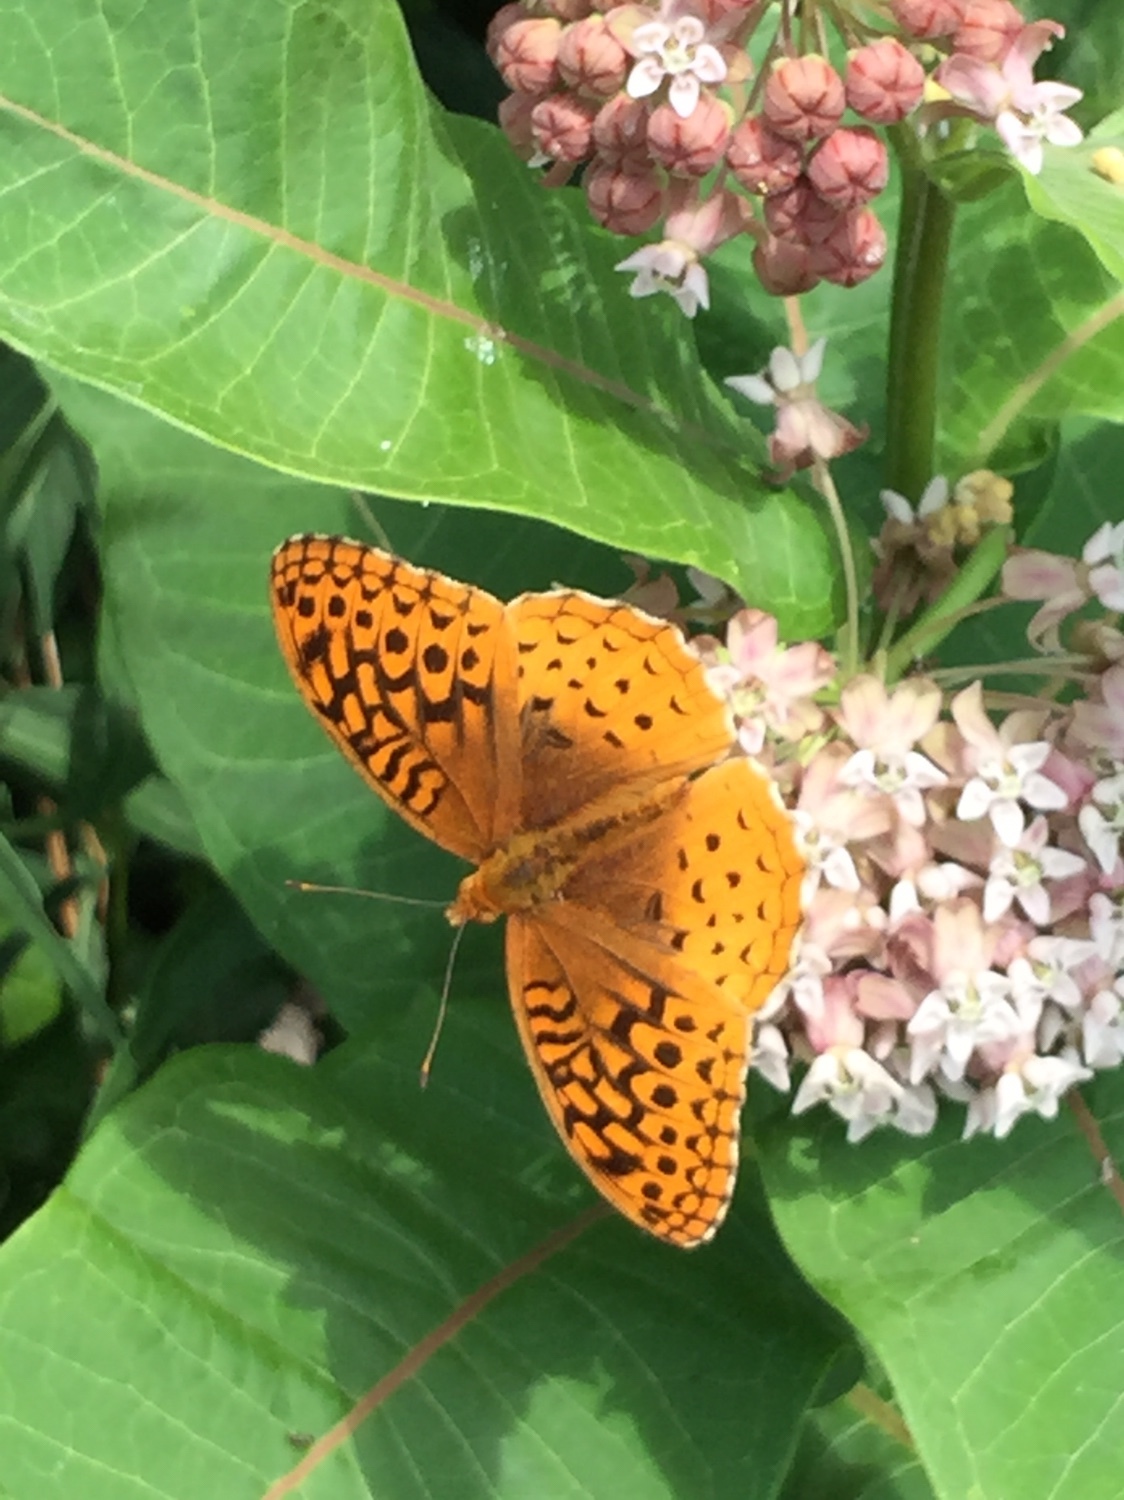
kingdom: Animalia
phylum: Arthropoda
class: Insecta
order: Lepidoptera
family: Nymphalidae
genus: Speyeria
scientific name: Speyeria cybele
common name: Great spangled fritillary
